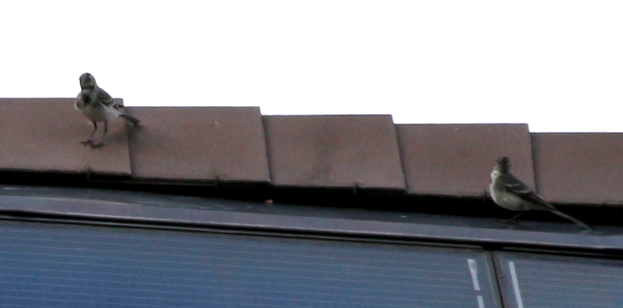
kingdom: Animalia
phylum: Chordata
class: Aves
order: Passeriformes
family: Motacillidae
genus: Motacilla
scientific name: Motacilla alba
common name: White wagtail
